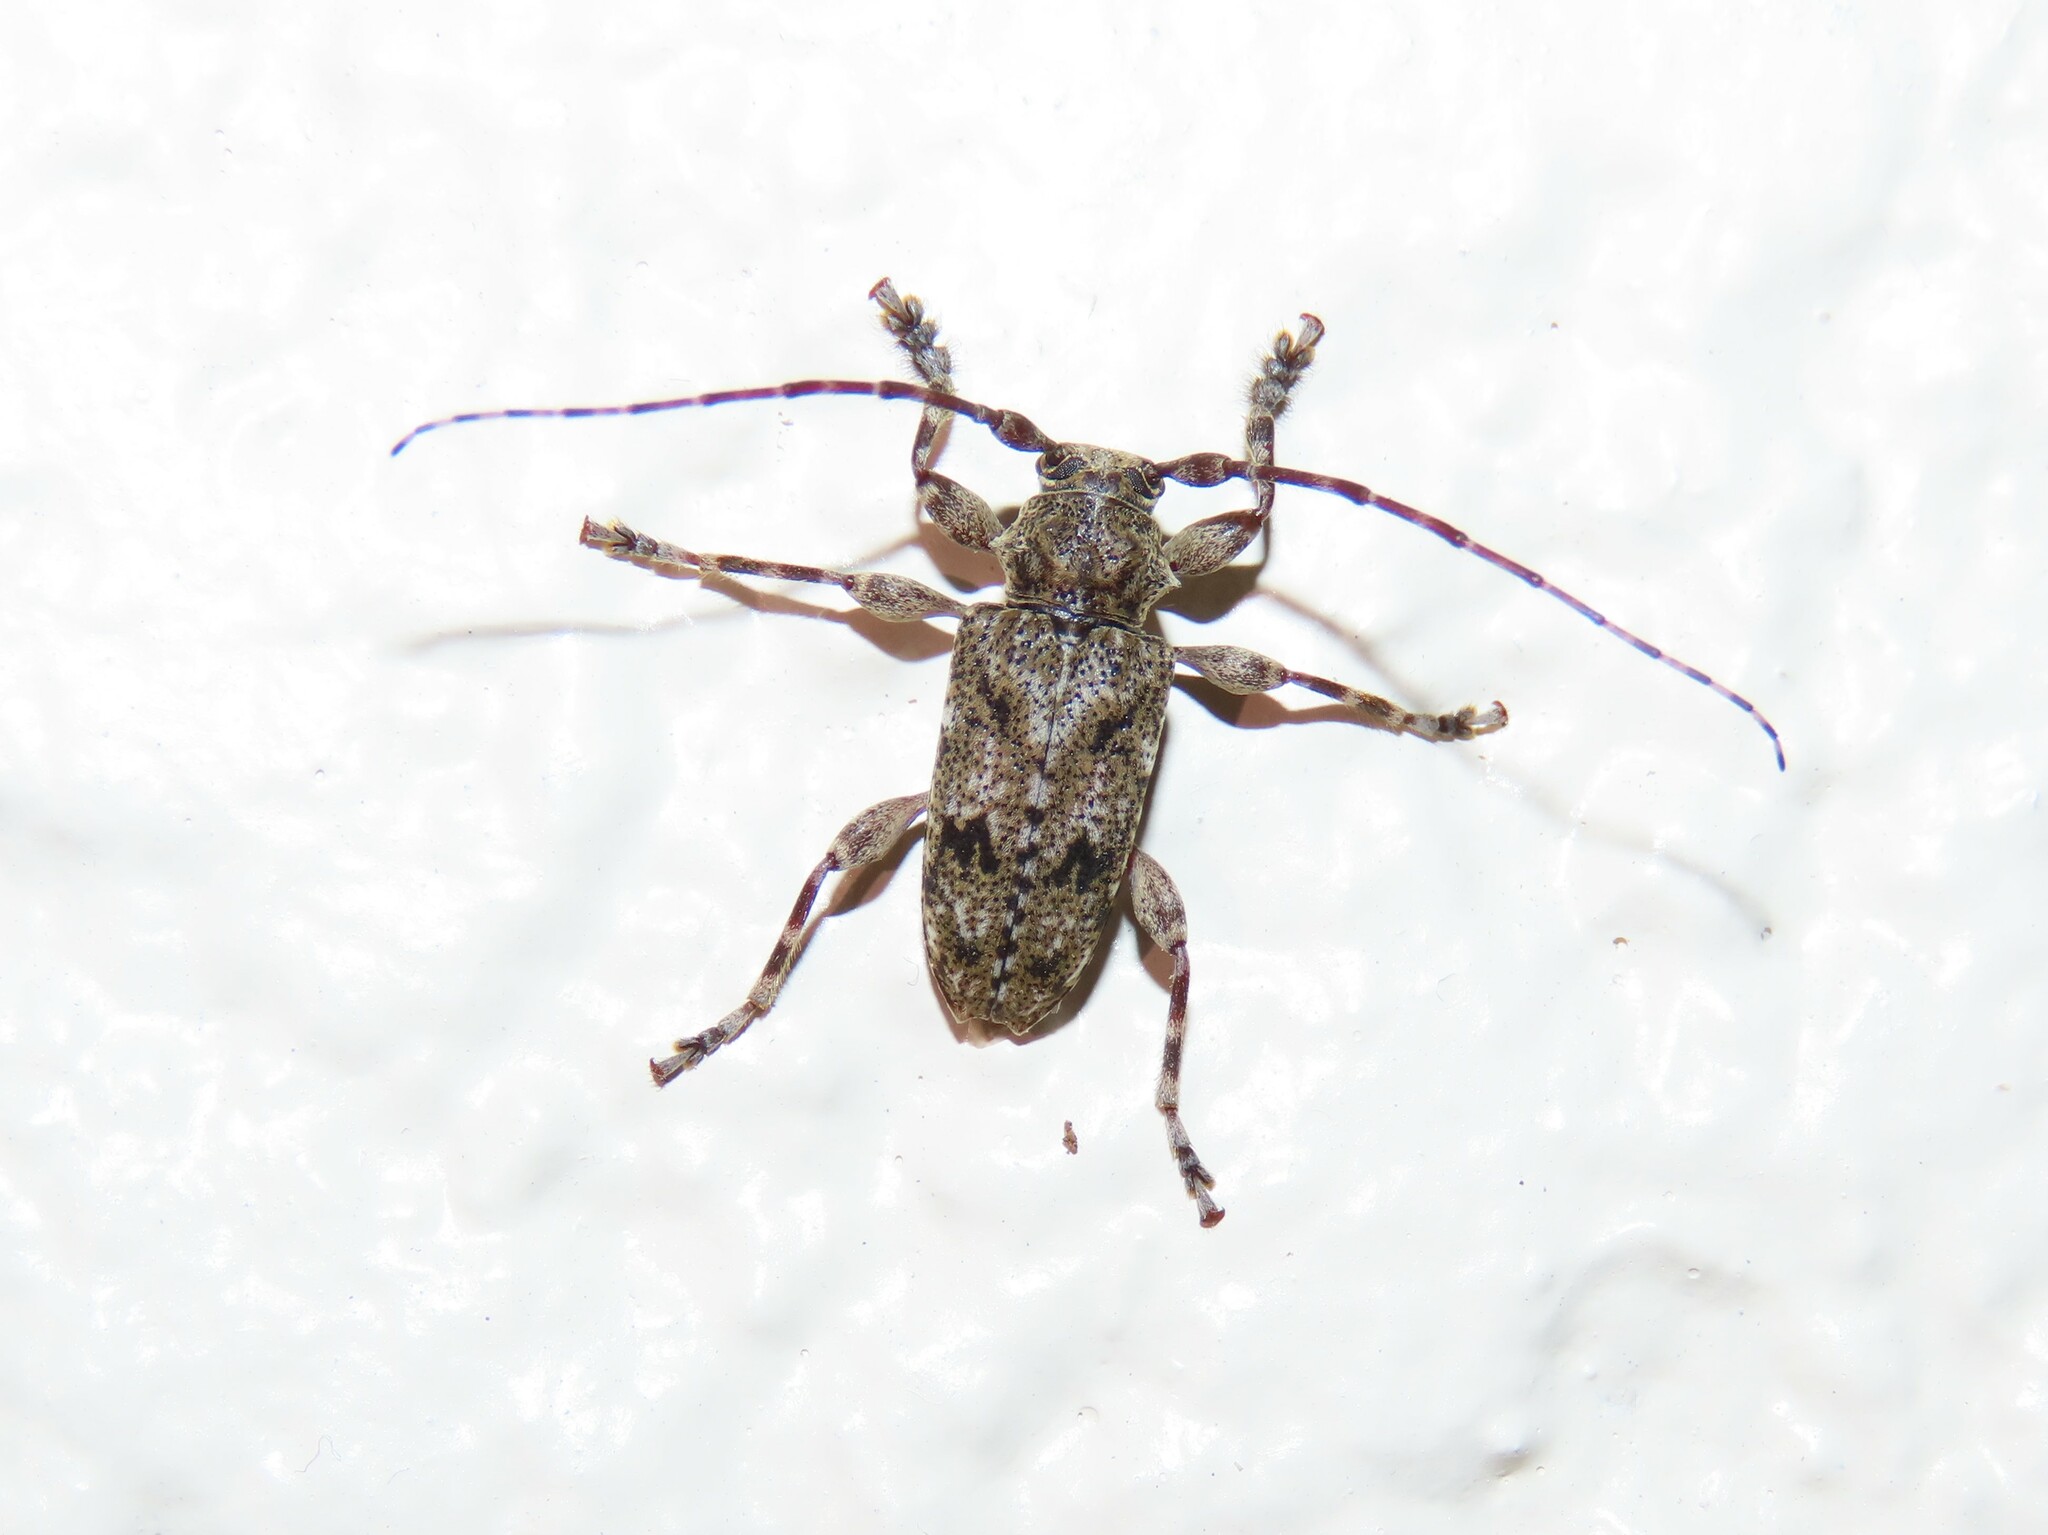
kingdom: Animalia
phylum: Arthropoda
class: Insecta
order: Coleoptera
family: Cerambycidae
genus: Aegomorphus
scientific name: Aegomorphus modestus
